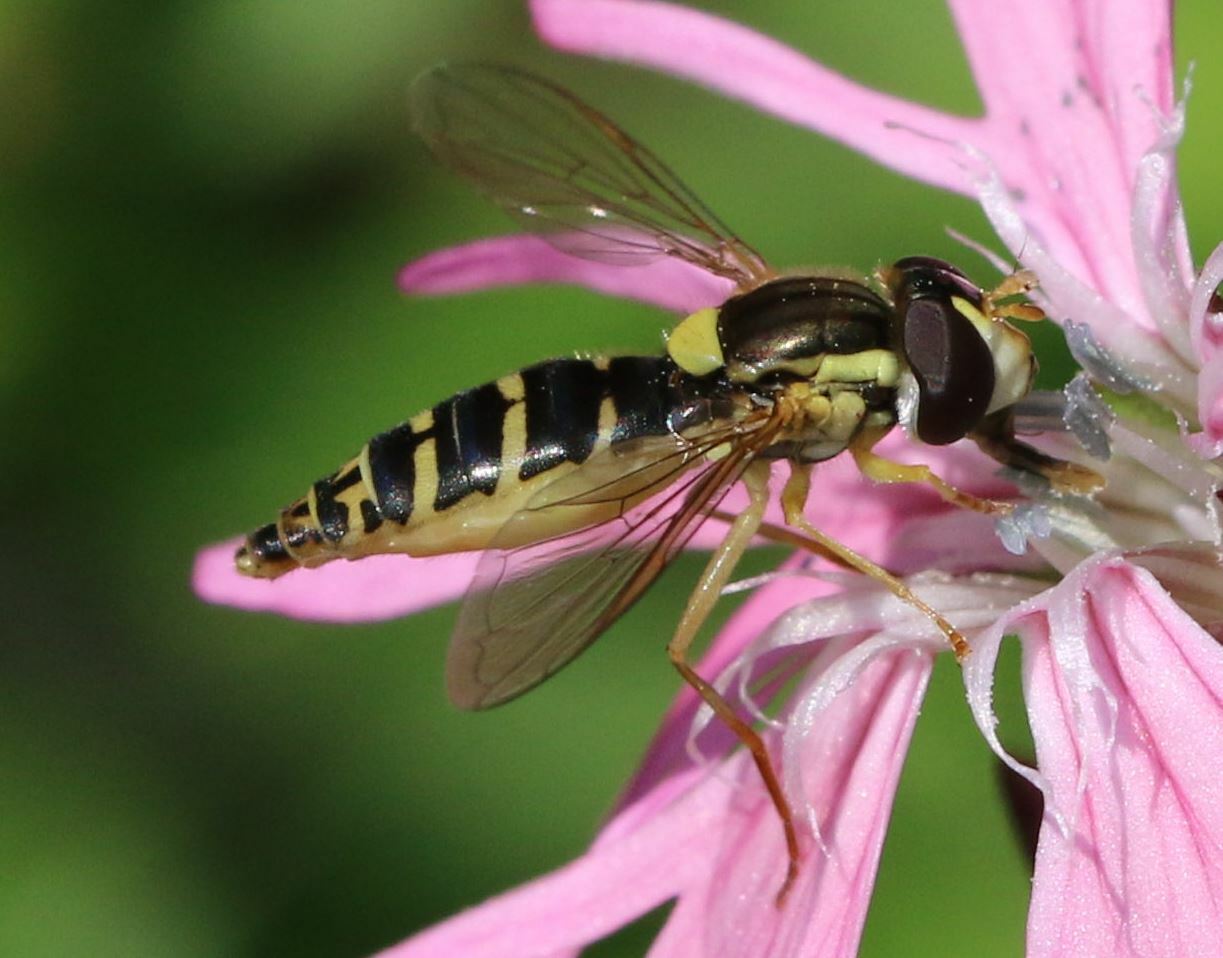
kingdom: Animalia
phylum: Arthropoda
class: Insecta
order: Diptera
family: Syrphidae
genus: Sphaerophoria
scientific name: Sphaerophoria
